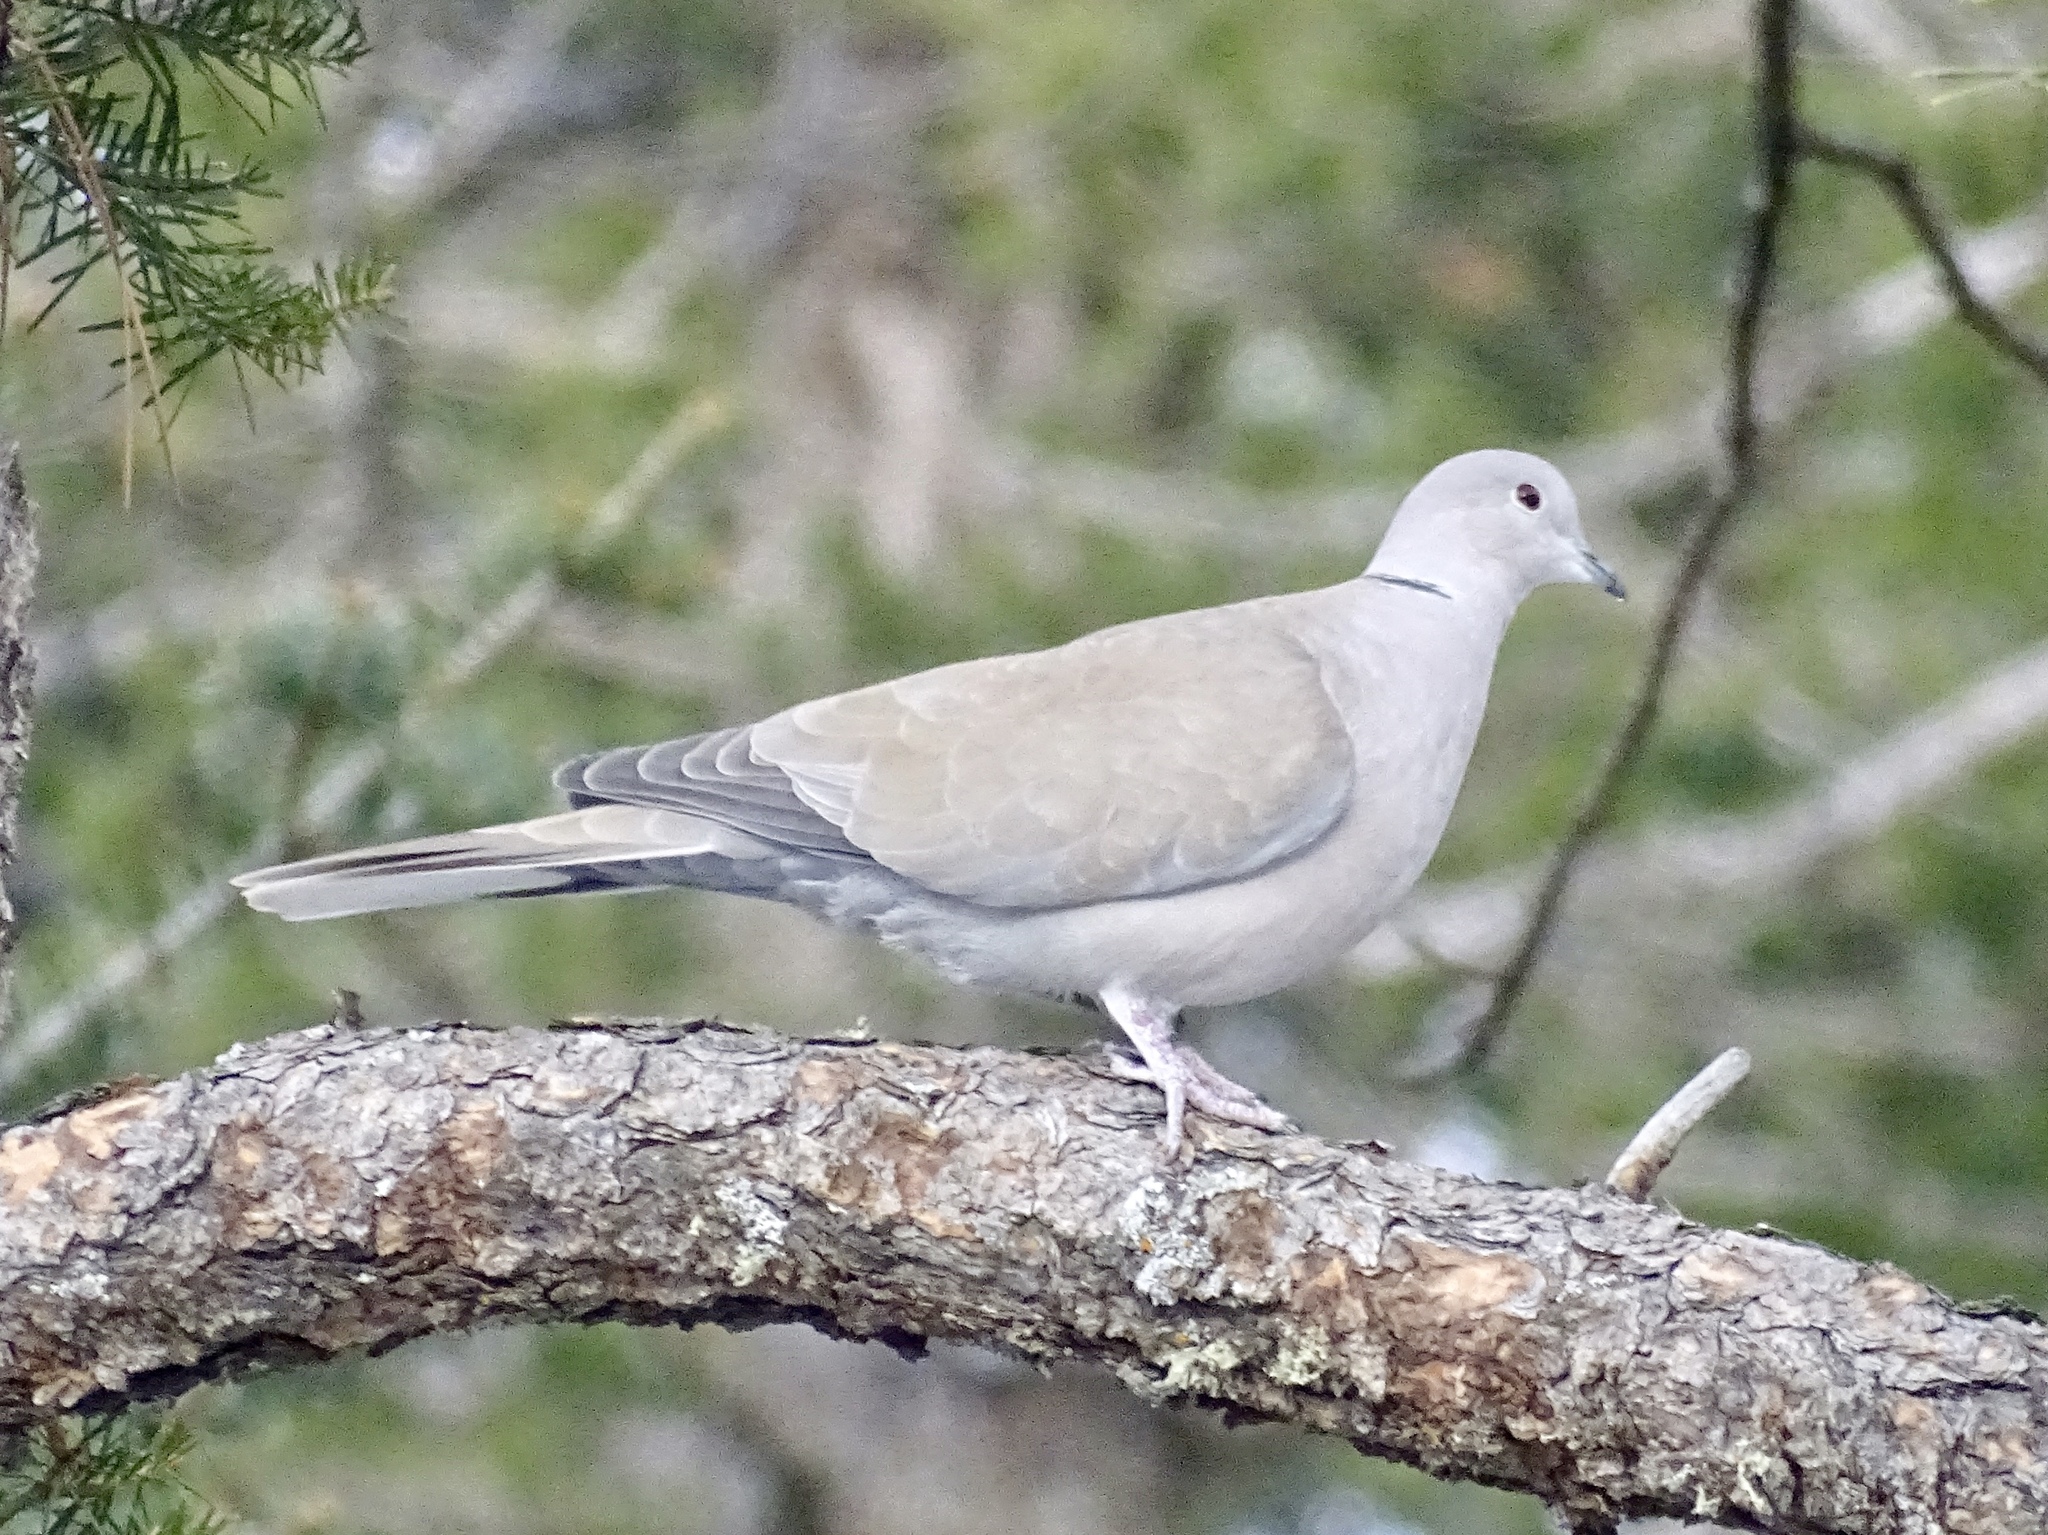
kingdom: Animalia
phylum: Chordata
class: Aves
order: Columbiformes
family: Columbidae
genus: Streptopelia
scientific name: Streptopelia decaocto
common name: Eurasian collared dove
